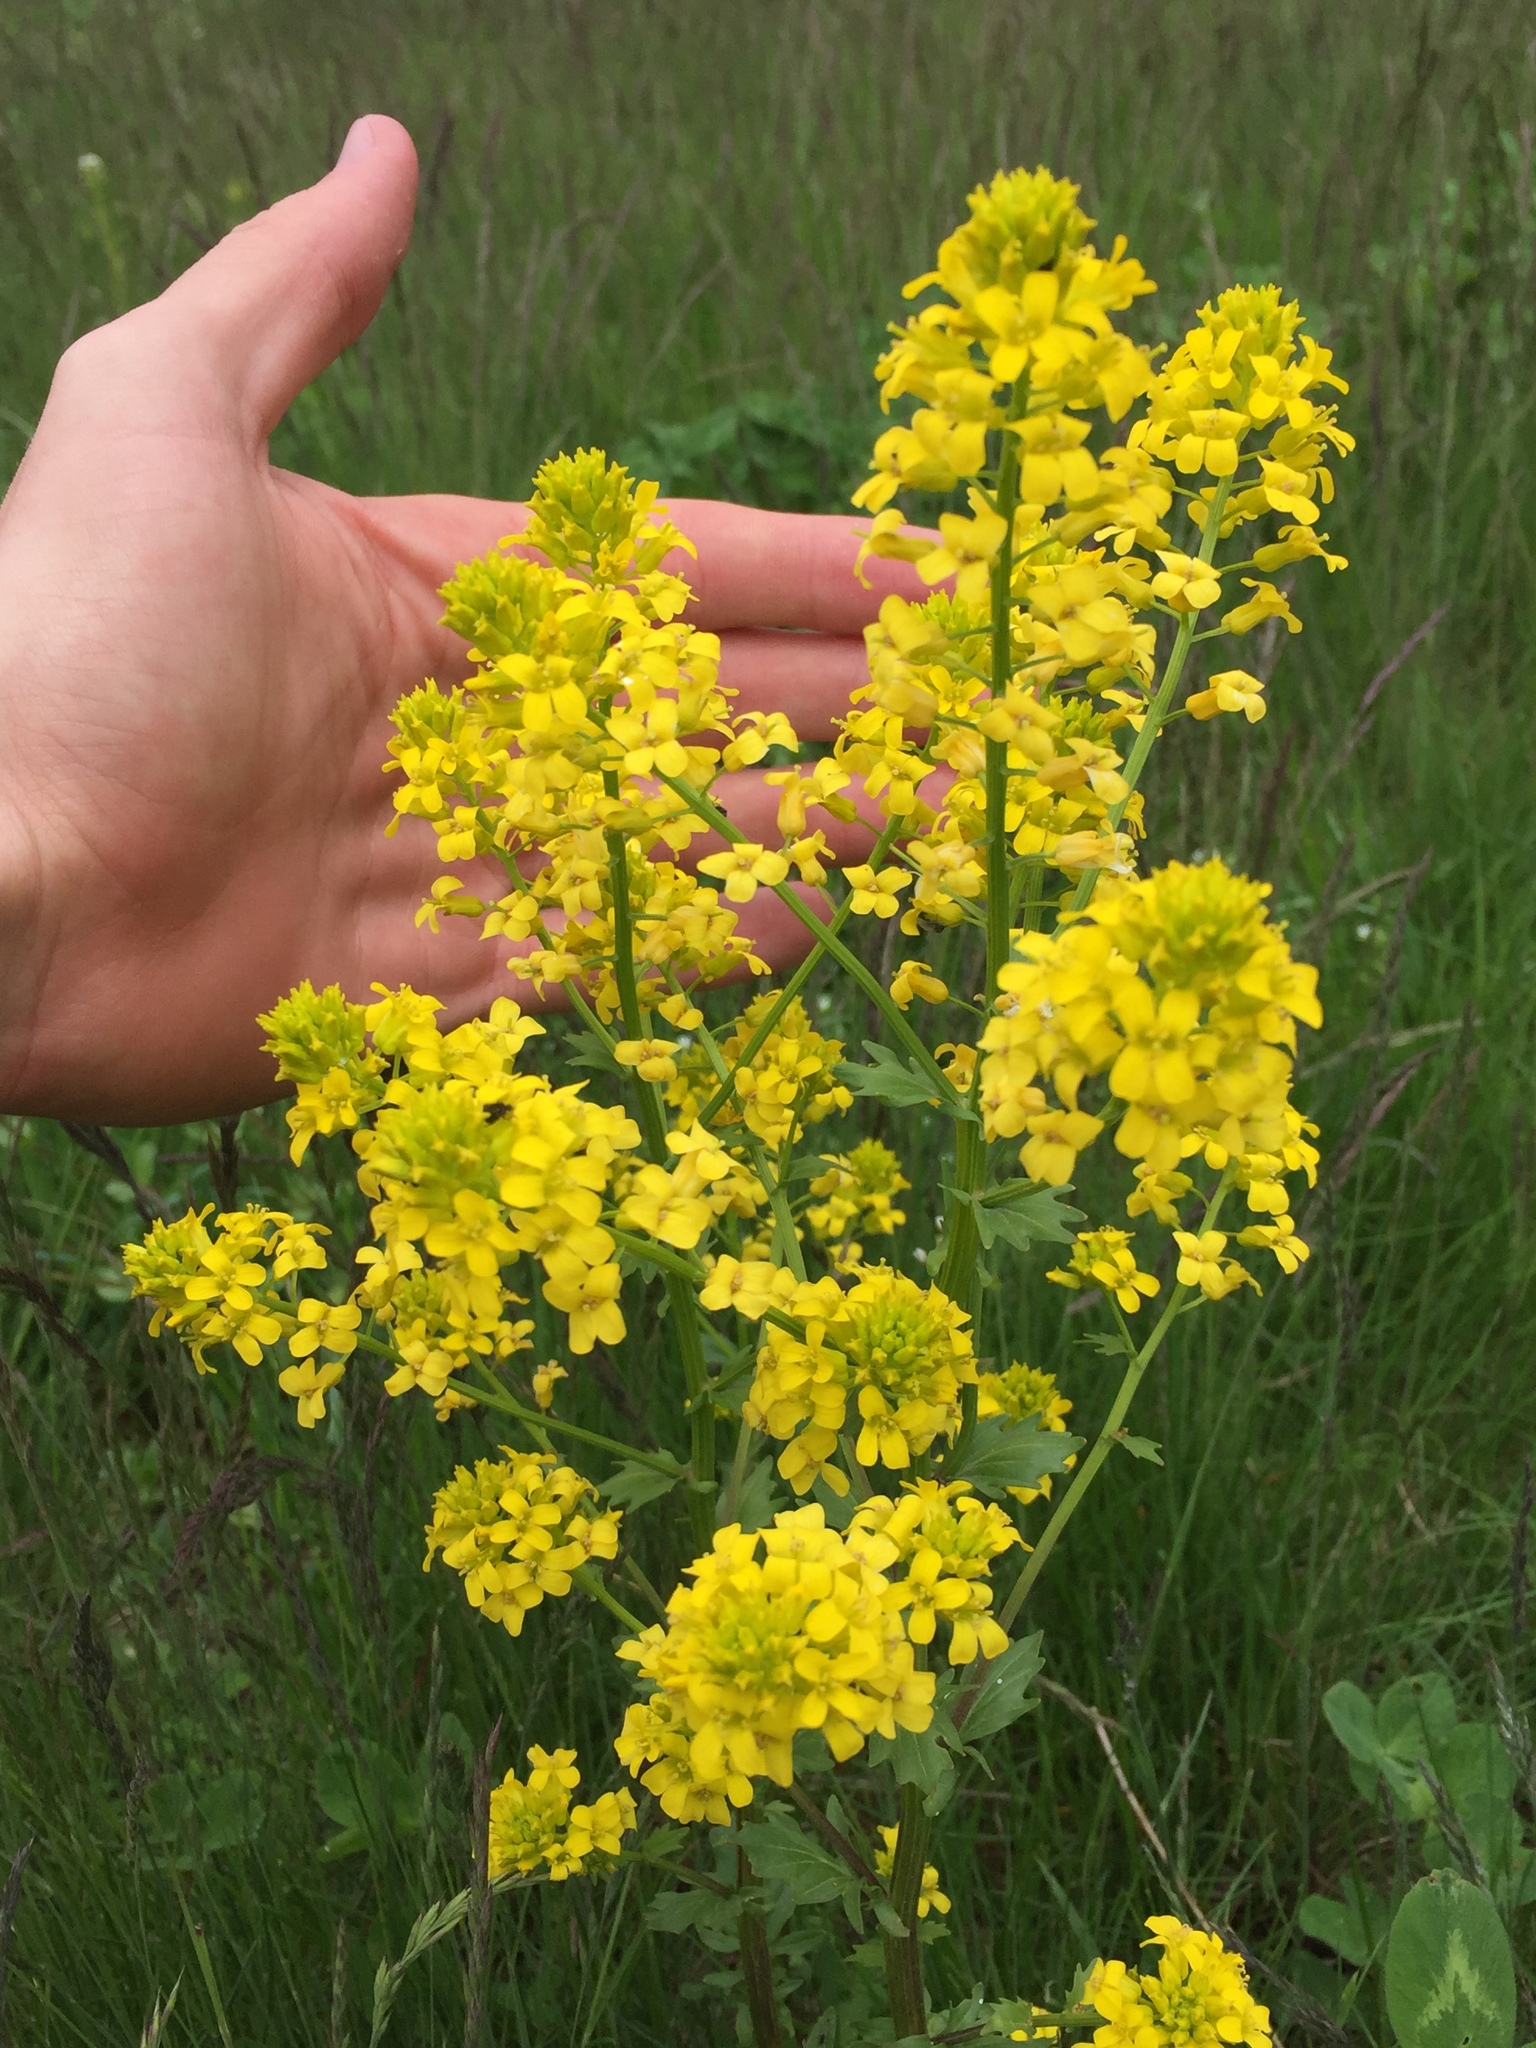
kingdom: Plantae
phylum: Tracheophyta
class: Magnoliopsida
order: Brassicales
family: Brassicaceae
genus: Barbarea
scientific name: Barbarea vulgaris
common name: Cressy-greens
